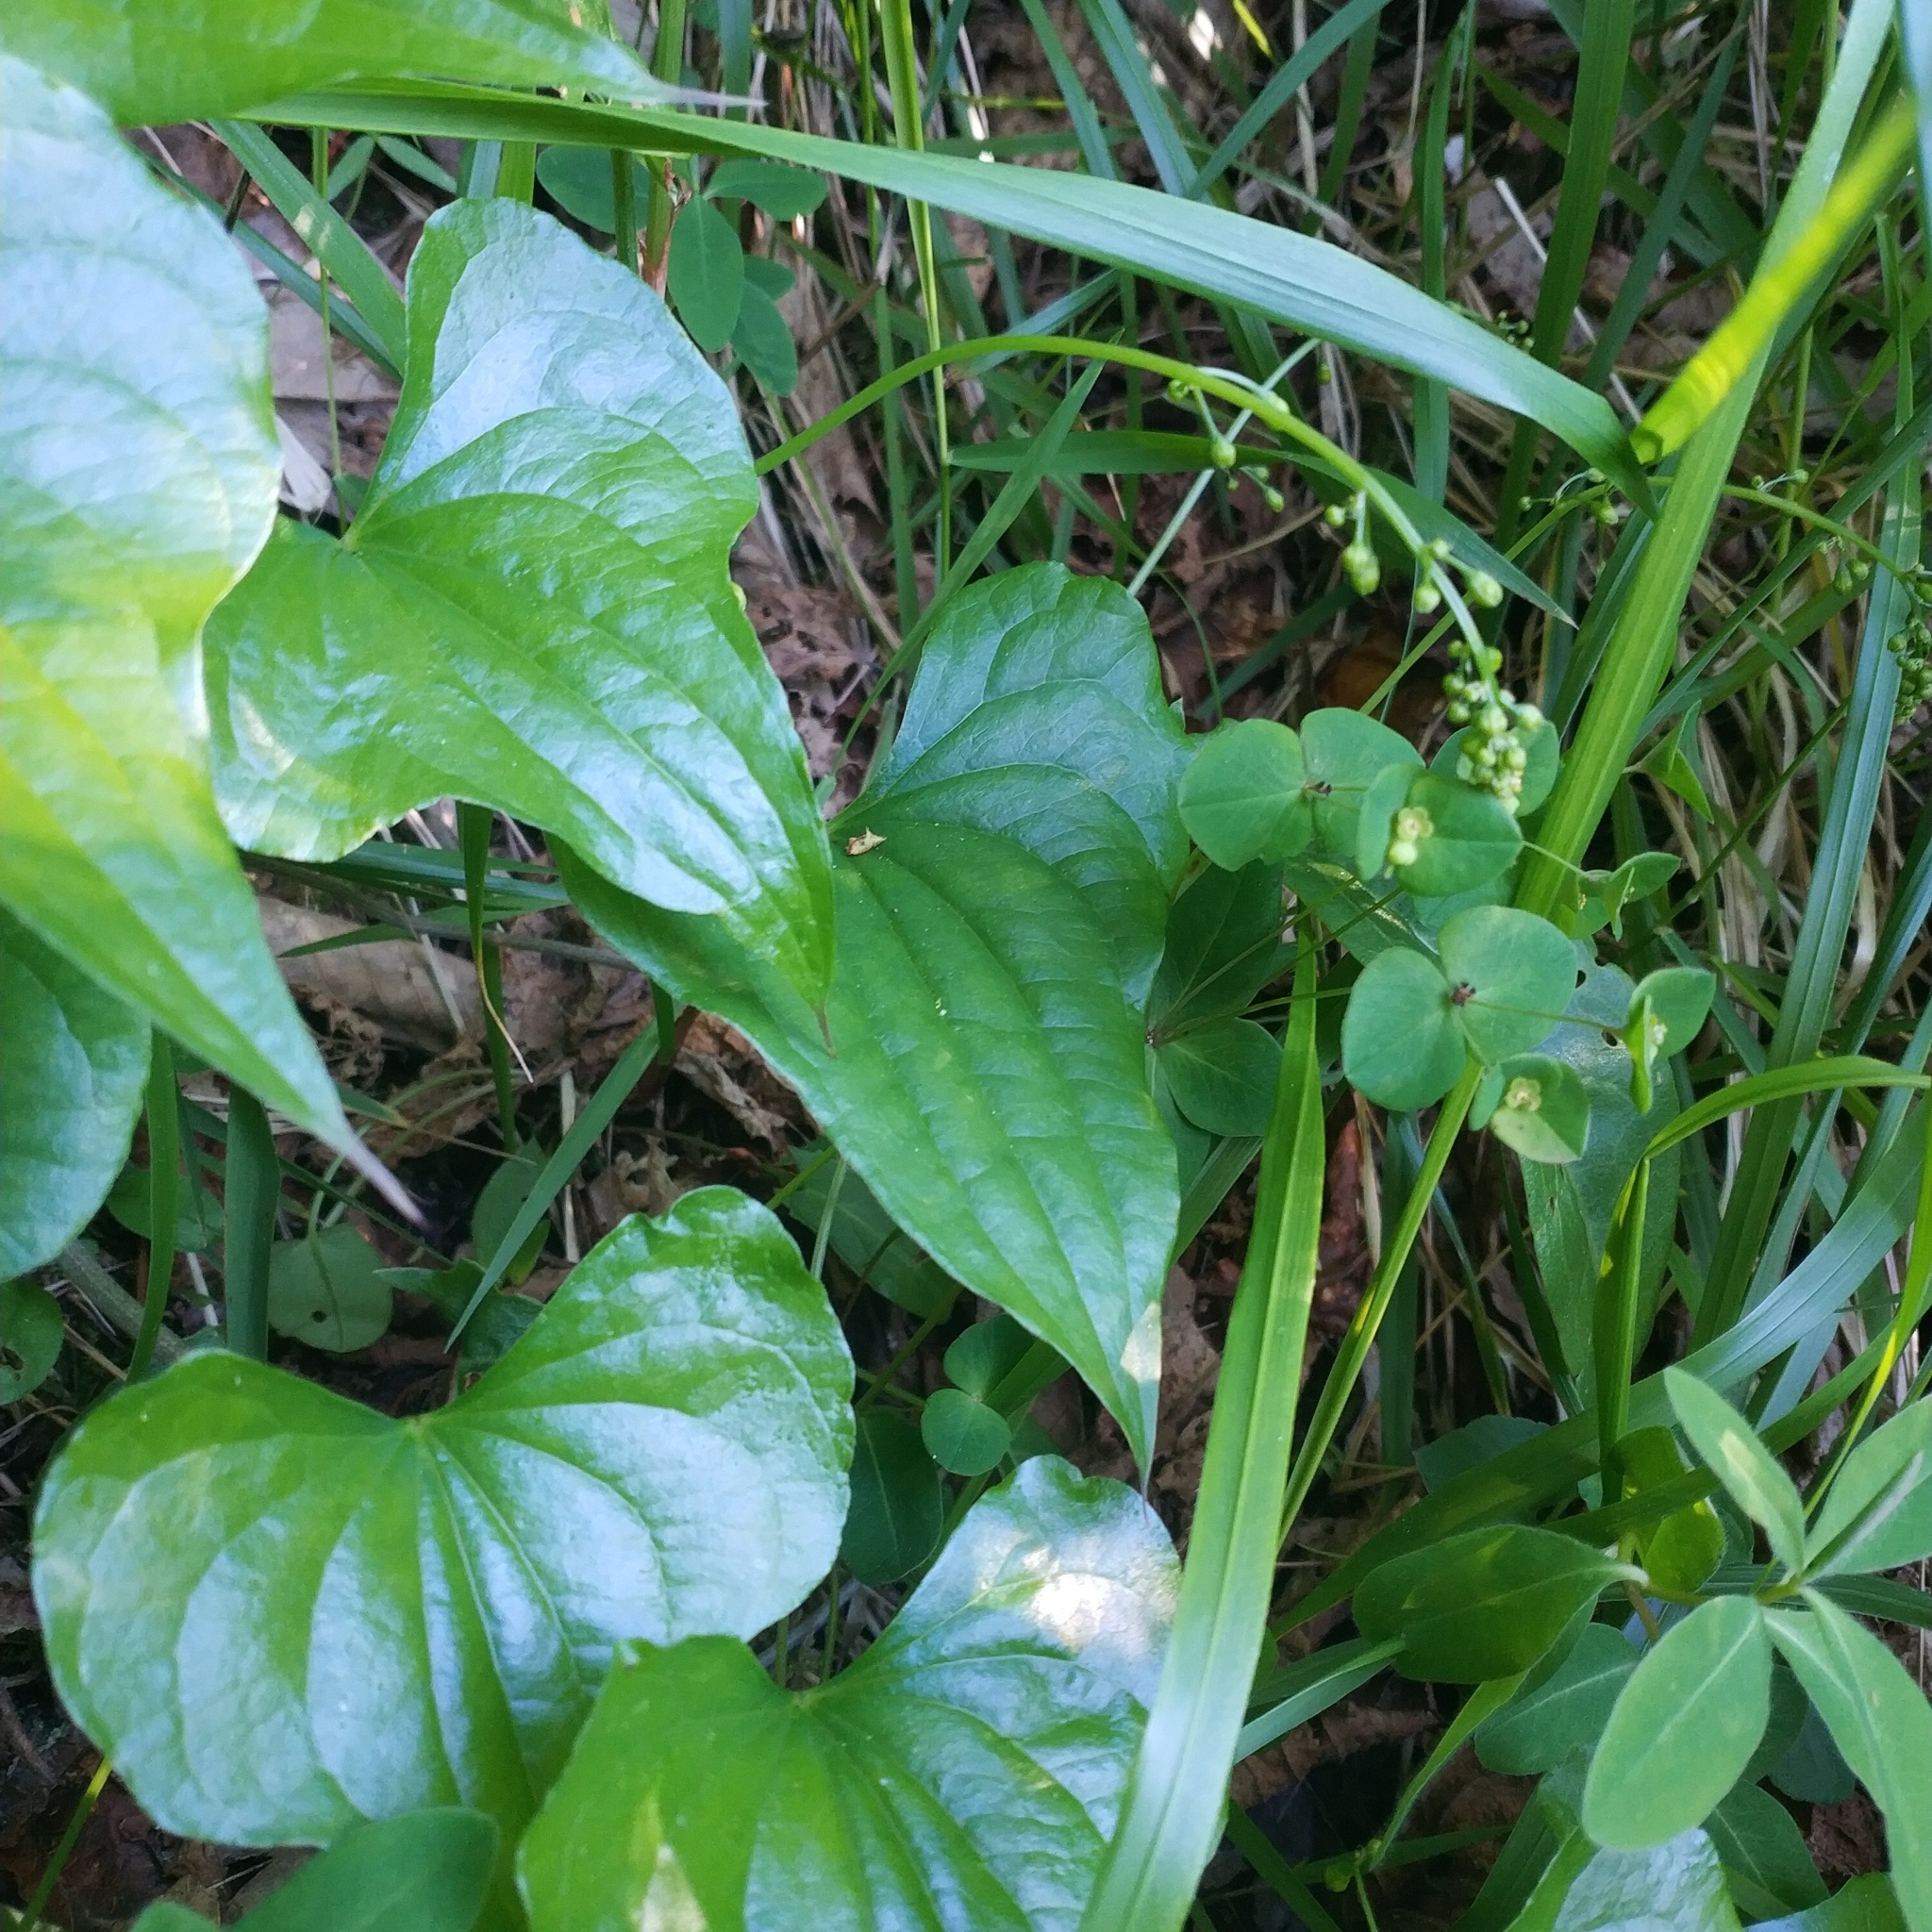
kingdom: Plantae
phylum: Tracheophyta
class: Liliopsida
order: Dioscoreales
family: Dioscoreaceae
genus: Dioscorea
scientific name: Dioscorea communis
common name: Black-bindweed
